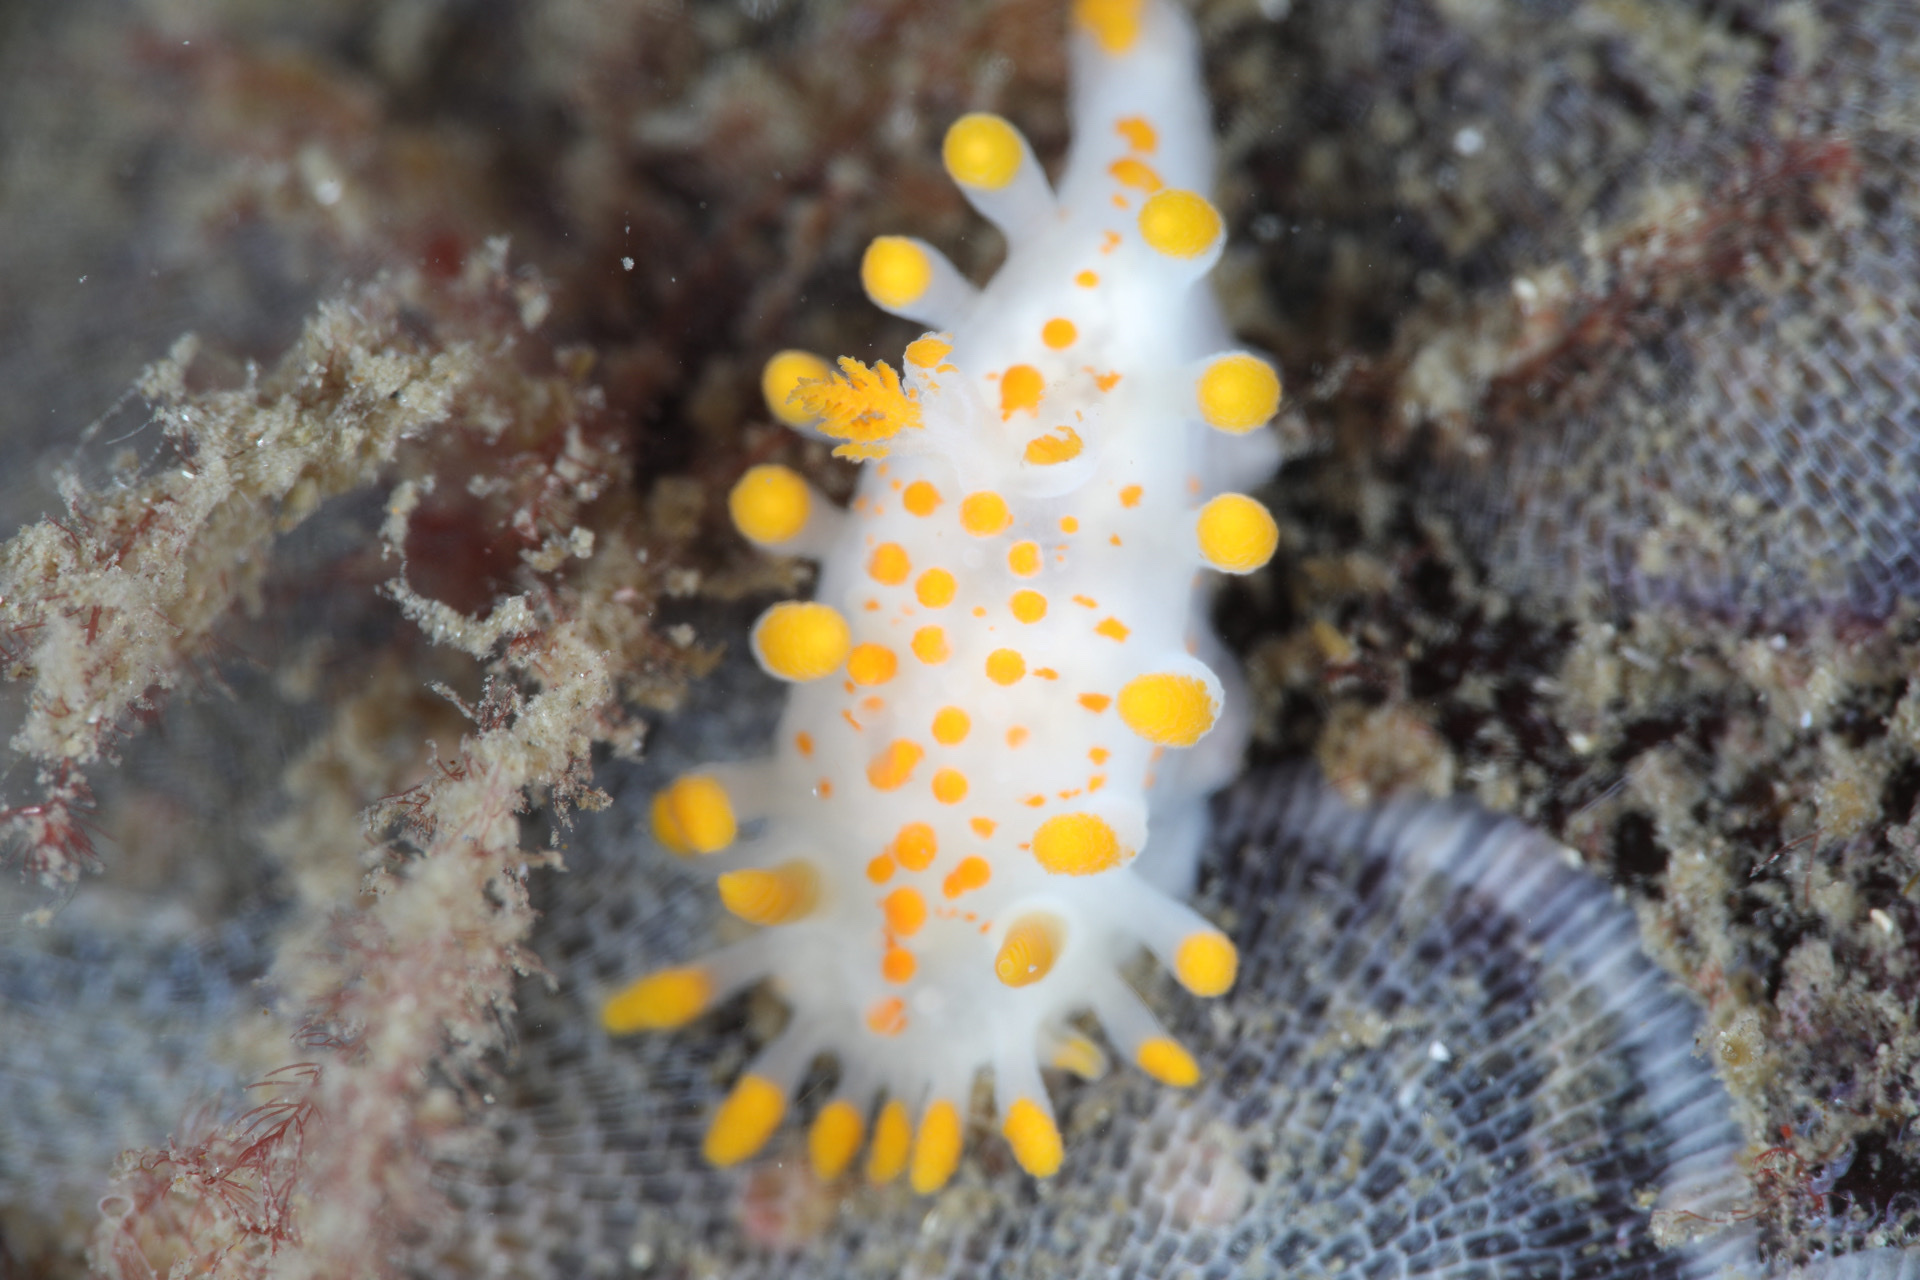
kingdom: Animalia
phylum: Mollusca
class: Gastropoda
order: Nudibranchia
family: Polyceridae
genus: Limacia
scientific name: Limacia clavigera
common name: Orange-clubbed sea slug
